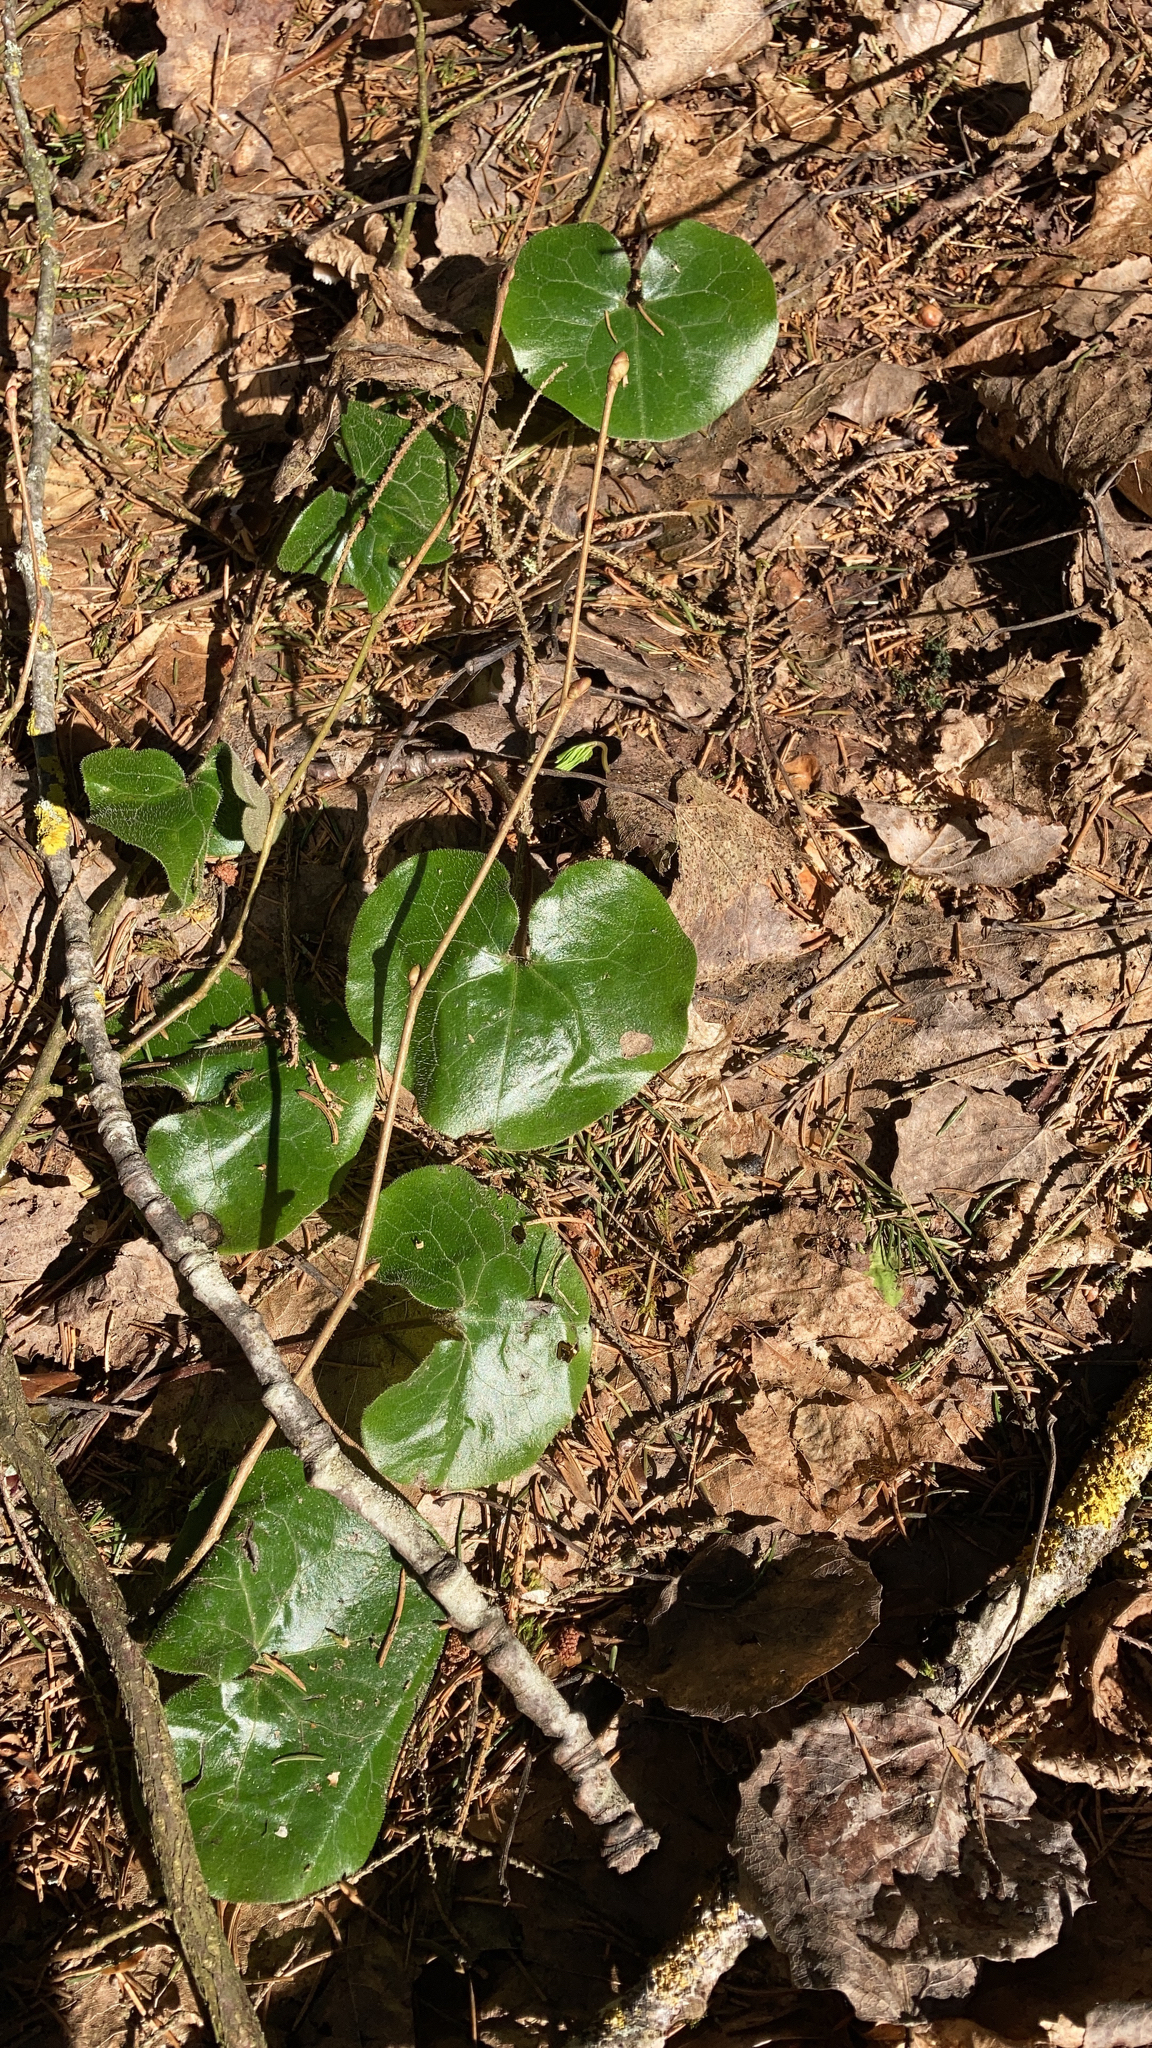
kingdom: Plantae
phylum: Tracheophyta
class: Magnoliopsida
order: Piperales
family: Aristolochiaceae
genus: Asarum
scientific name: Asarum europaeum
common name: Asarabacca
